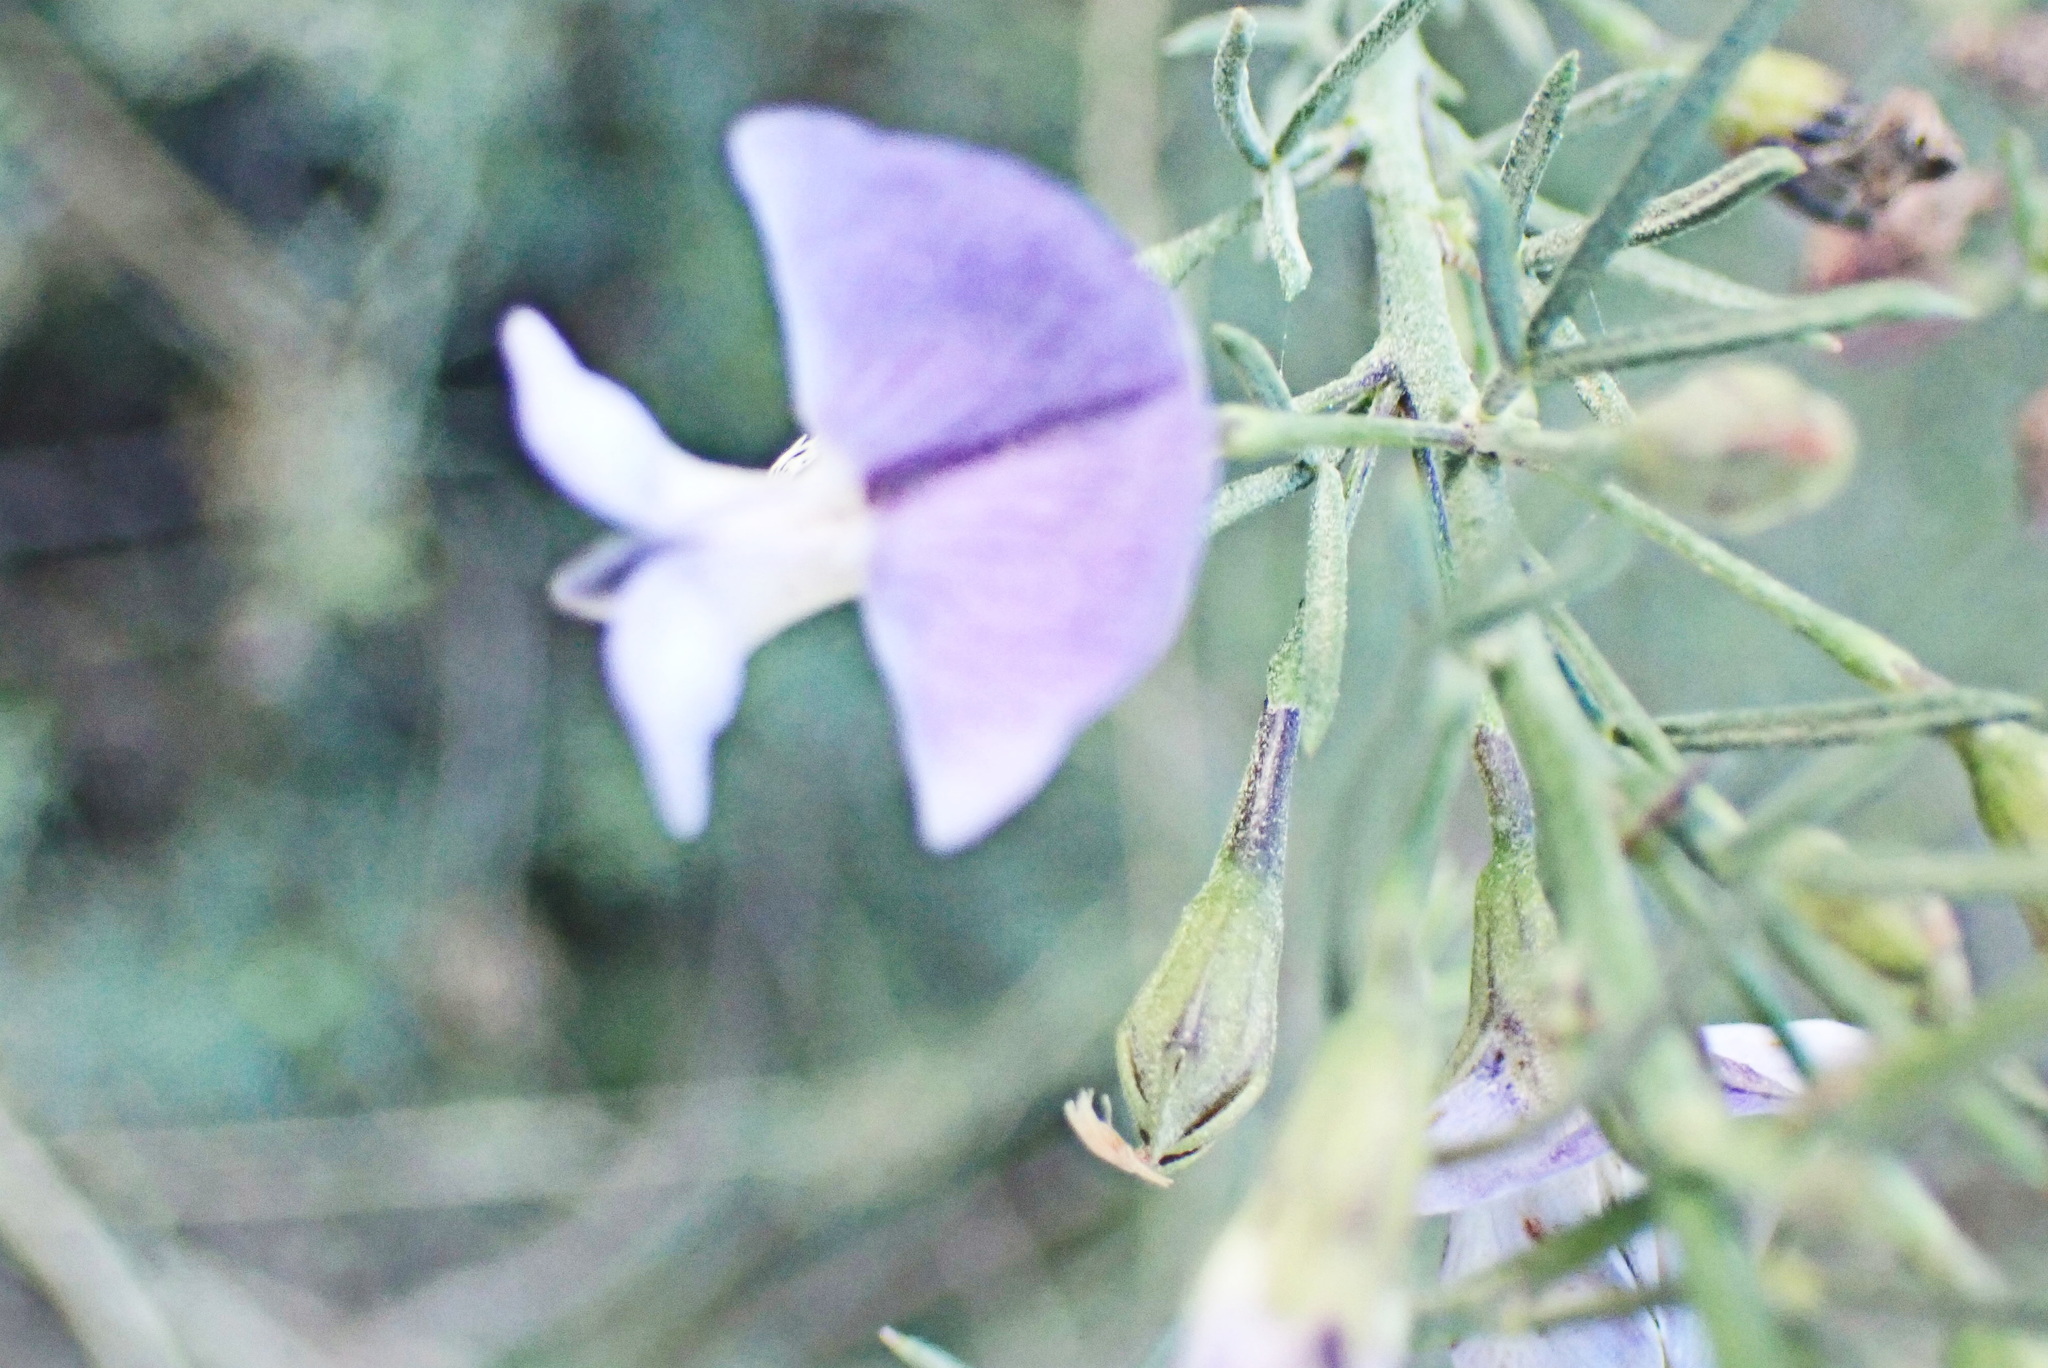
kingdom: Plantae
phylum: Tracheophyta
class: Magnoliopsida
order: Fabales
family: Fabaceae
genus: Psoralea
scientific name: Psoralea
